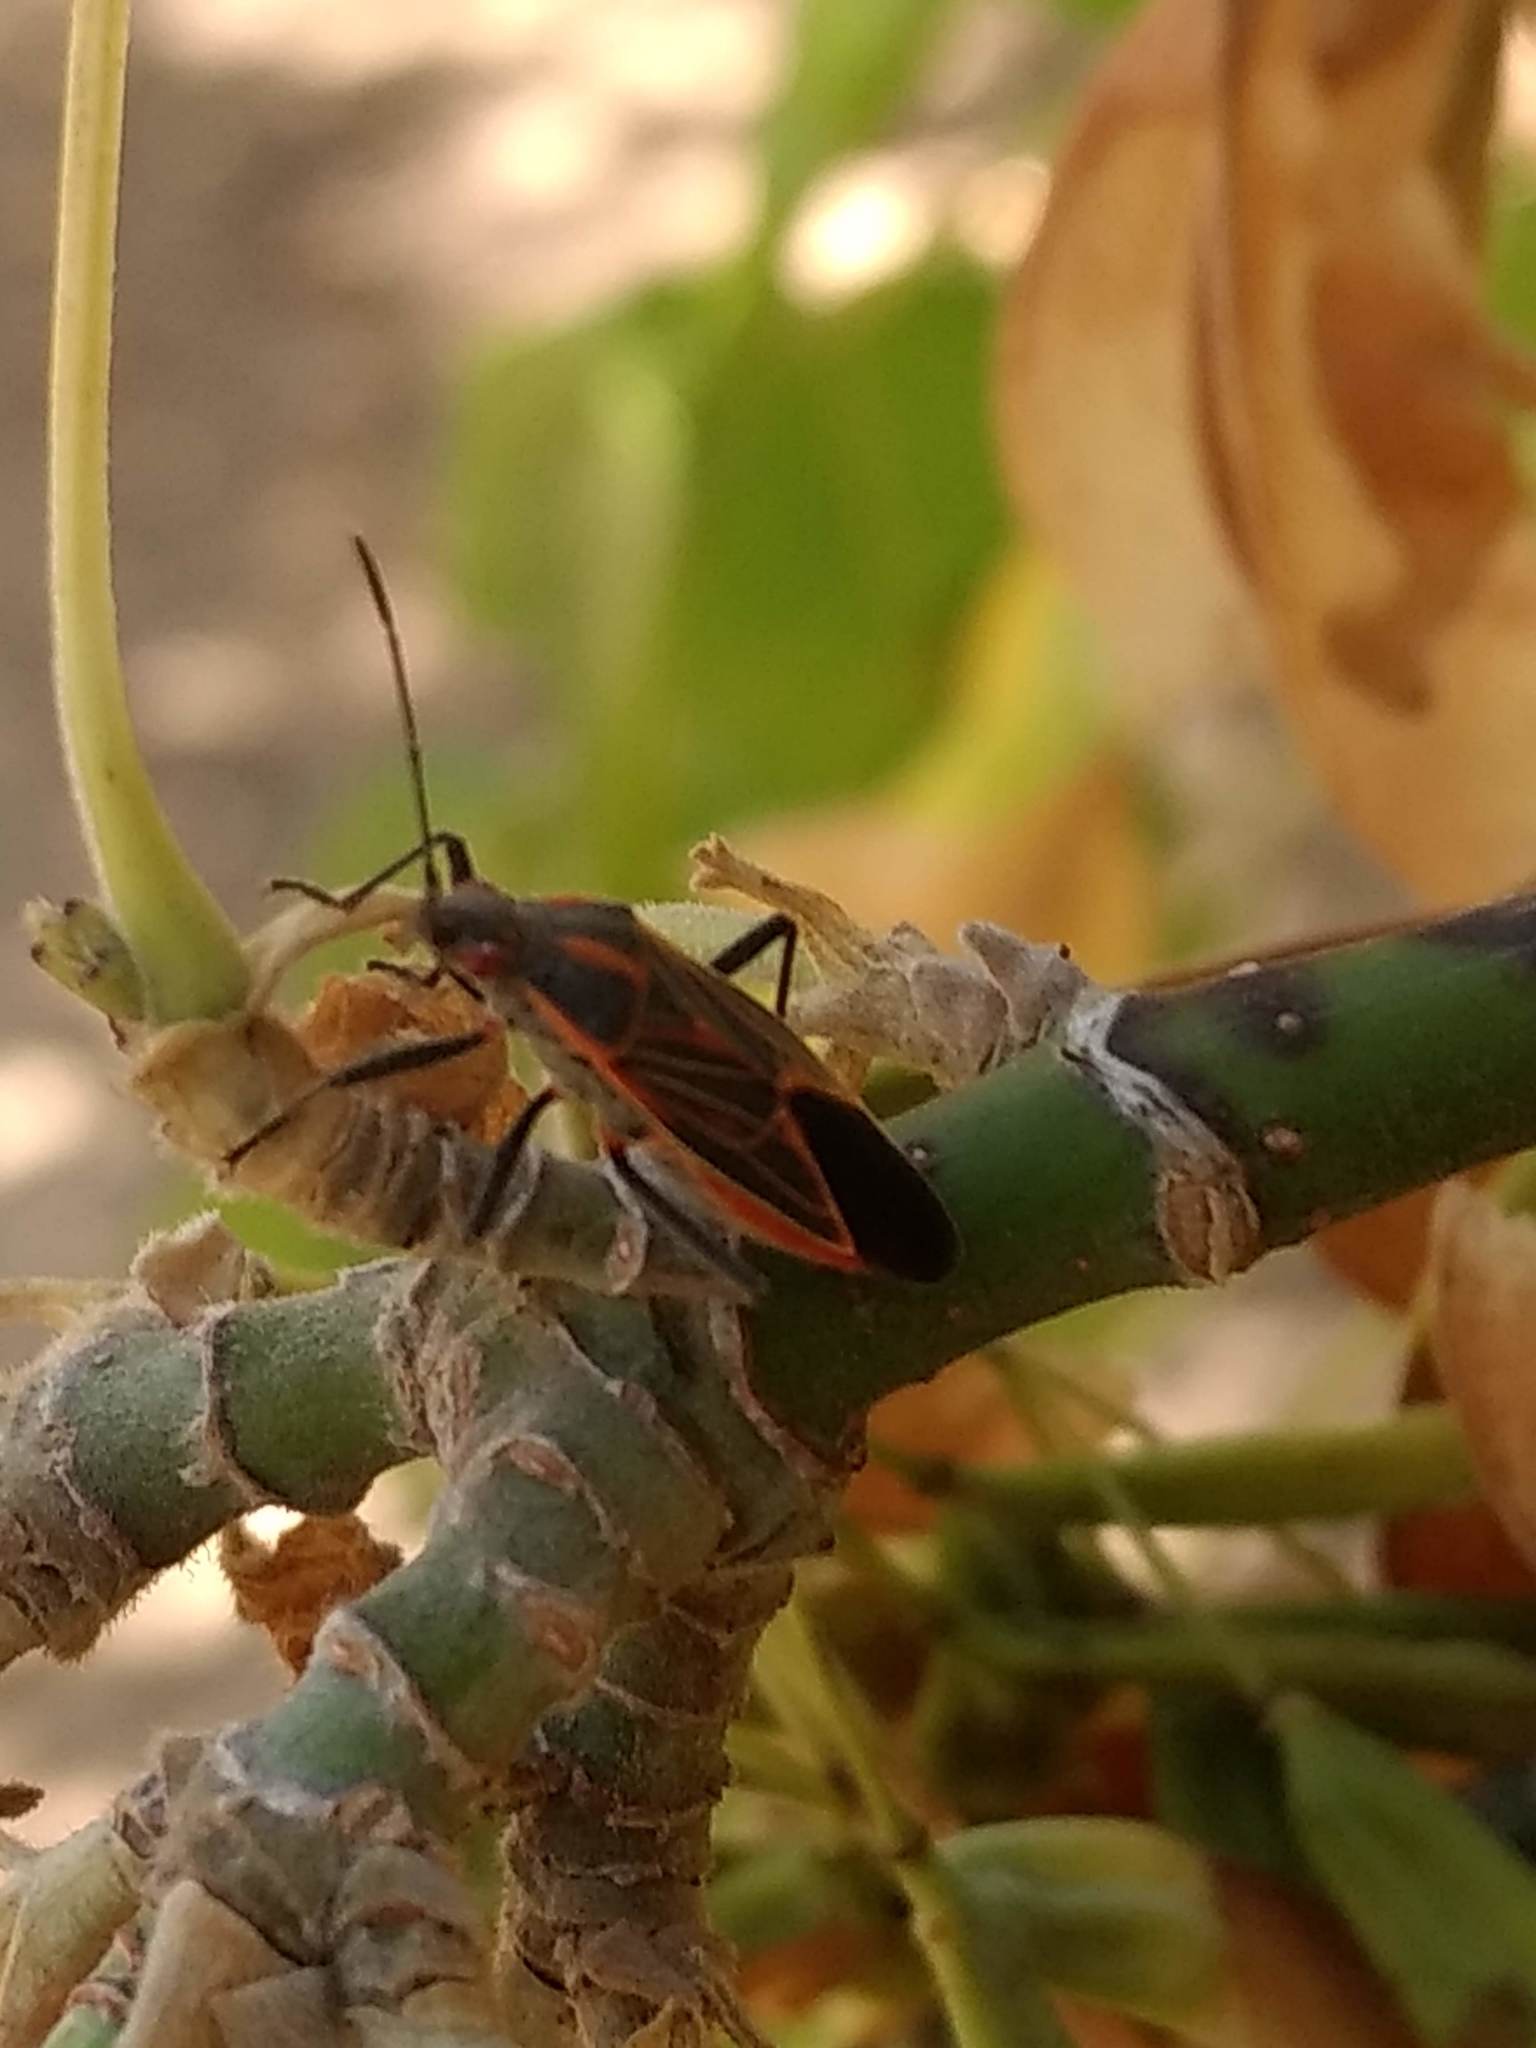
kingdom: Animalia
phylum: Arthropoda
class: Insecta
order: Hemiptera
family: Rhopalidae
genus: Boisea
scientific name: Boisea rubrolineata
